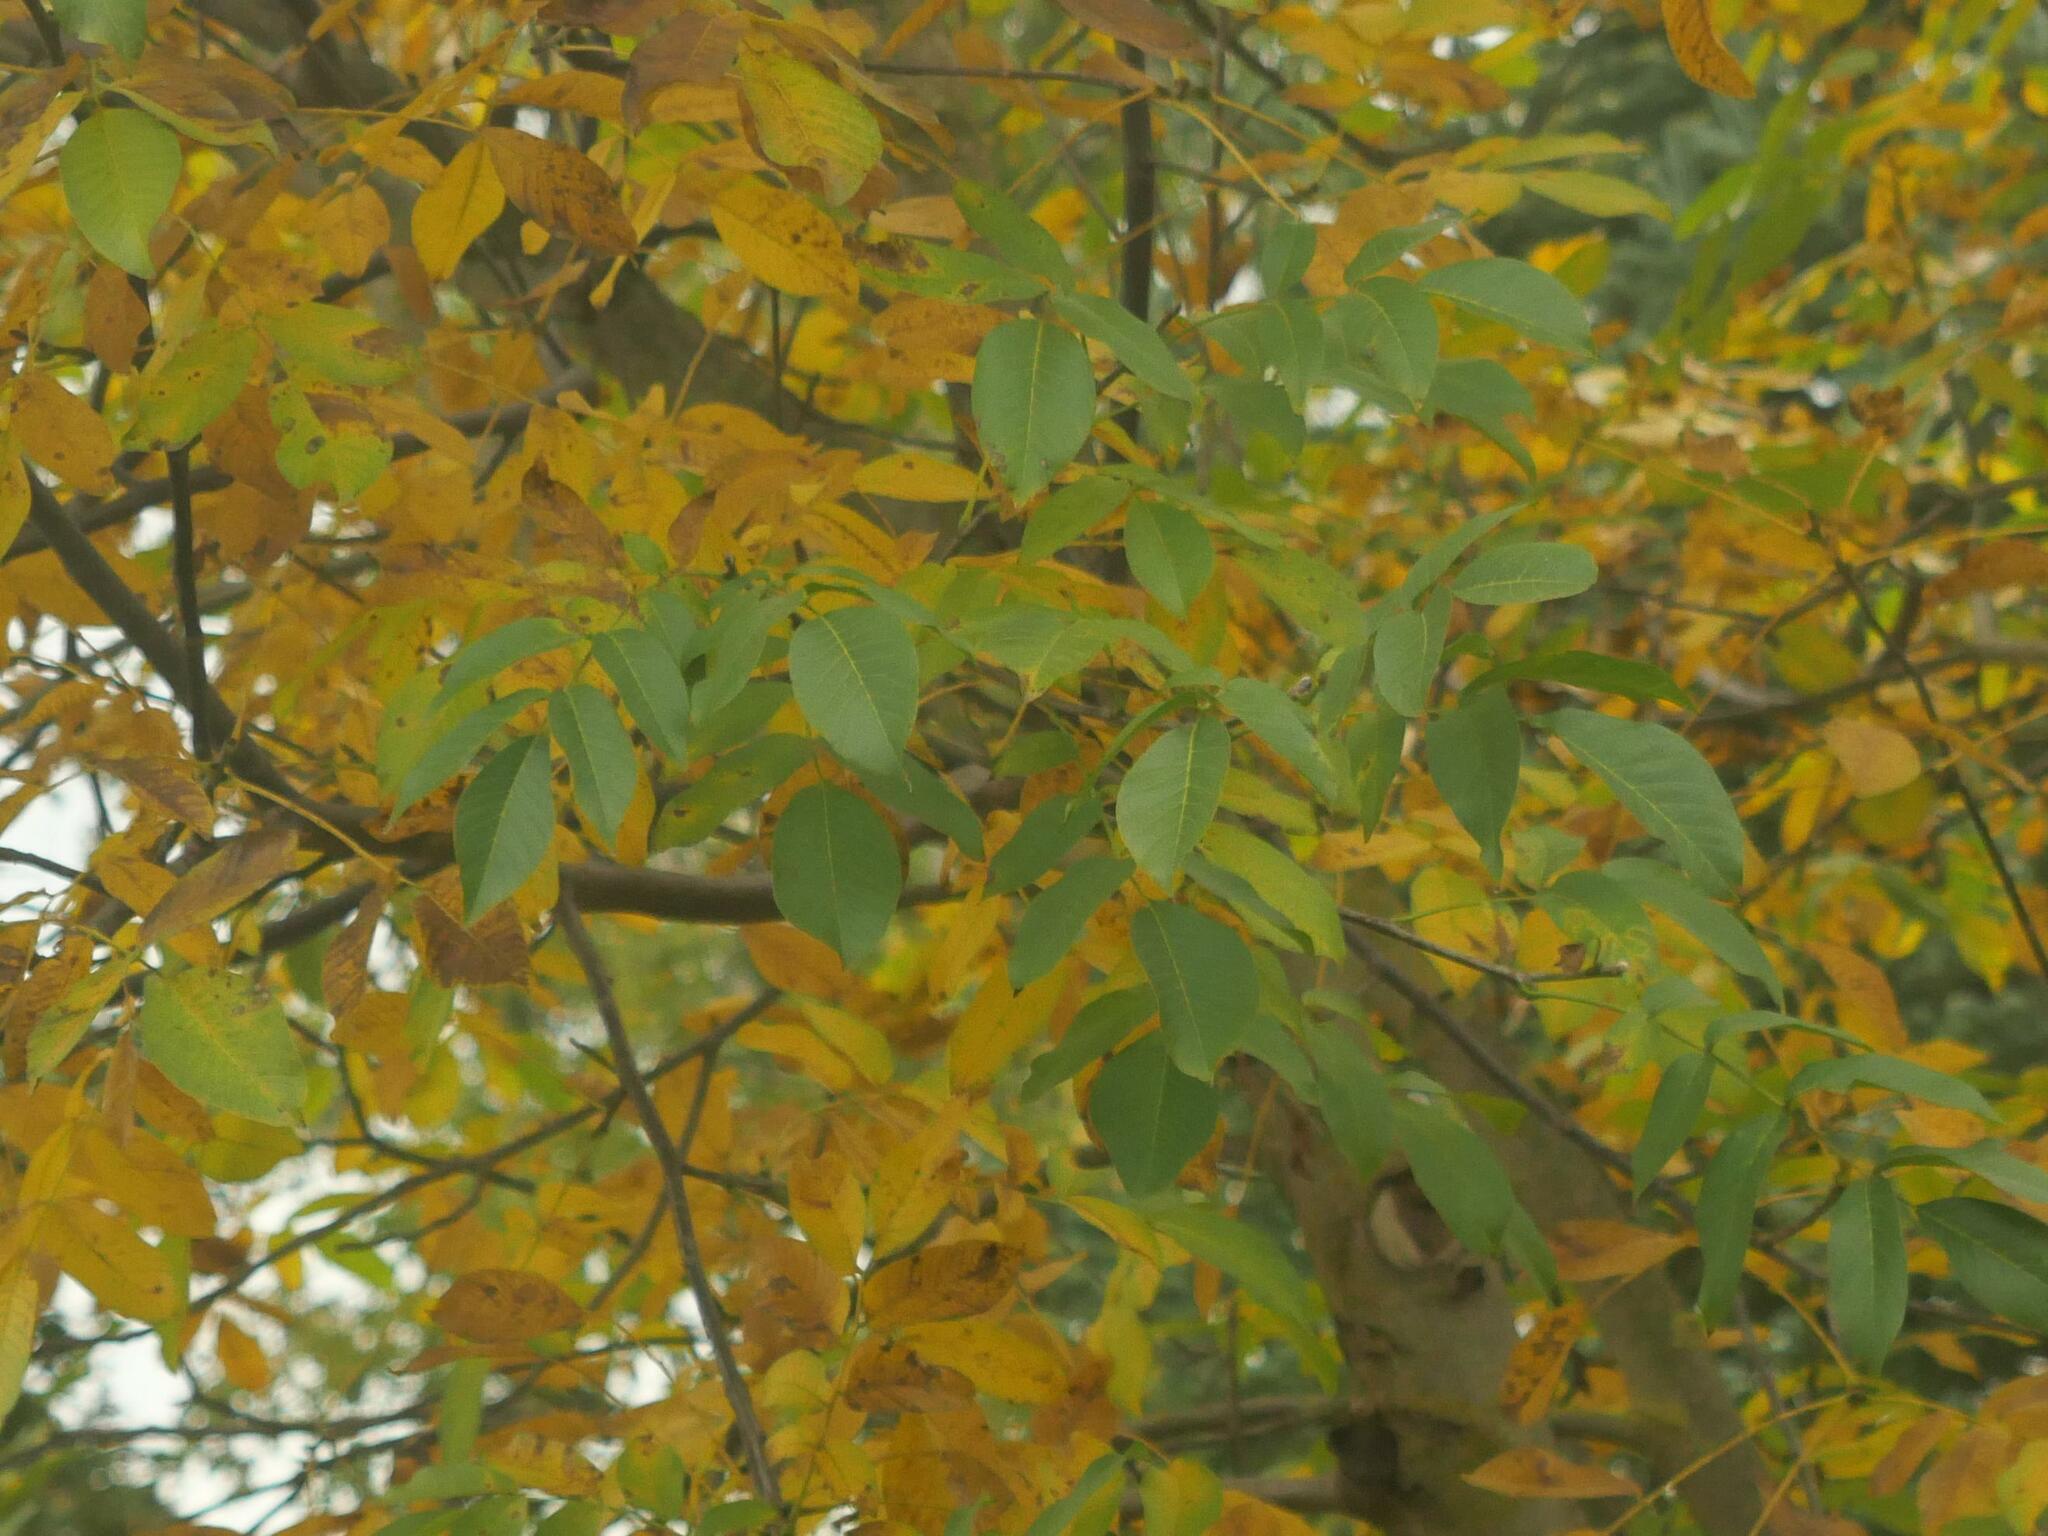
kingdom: Plantae
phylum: Tracheophyta
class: Magnoliopsida
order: Fagales
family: Juglandaceae
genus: Juglans
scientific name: Juglans regia
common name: Walnut
